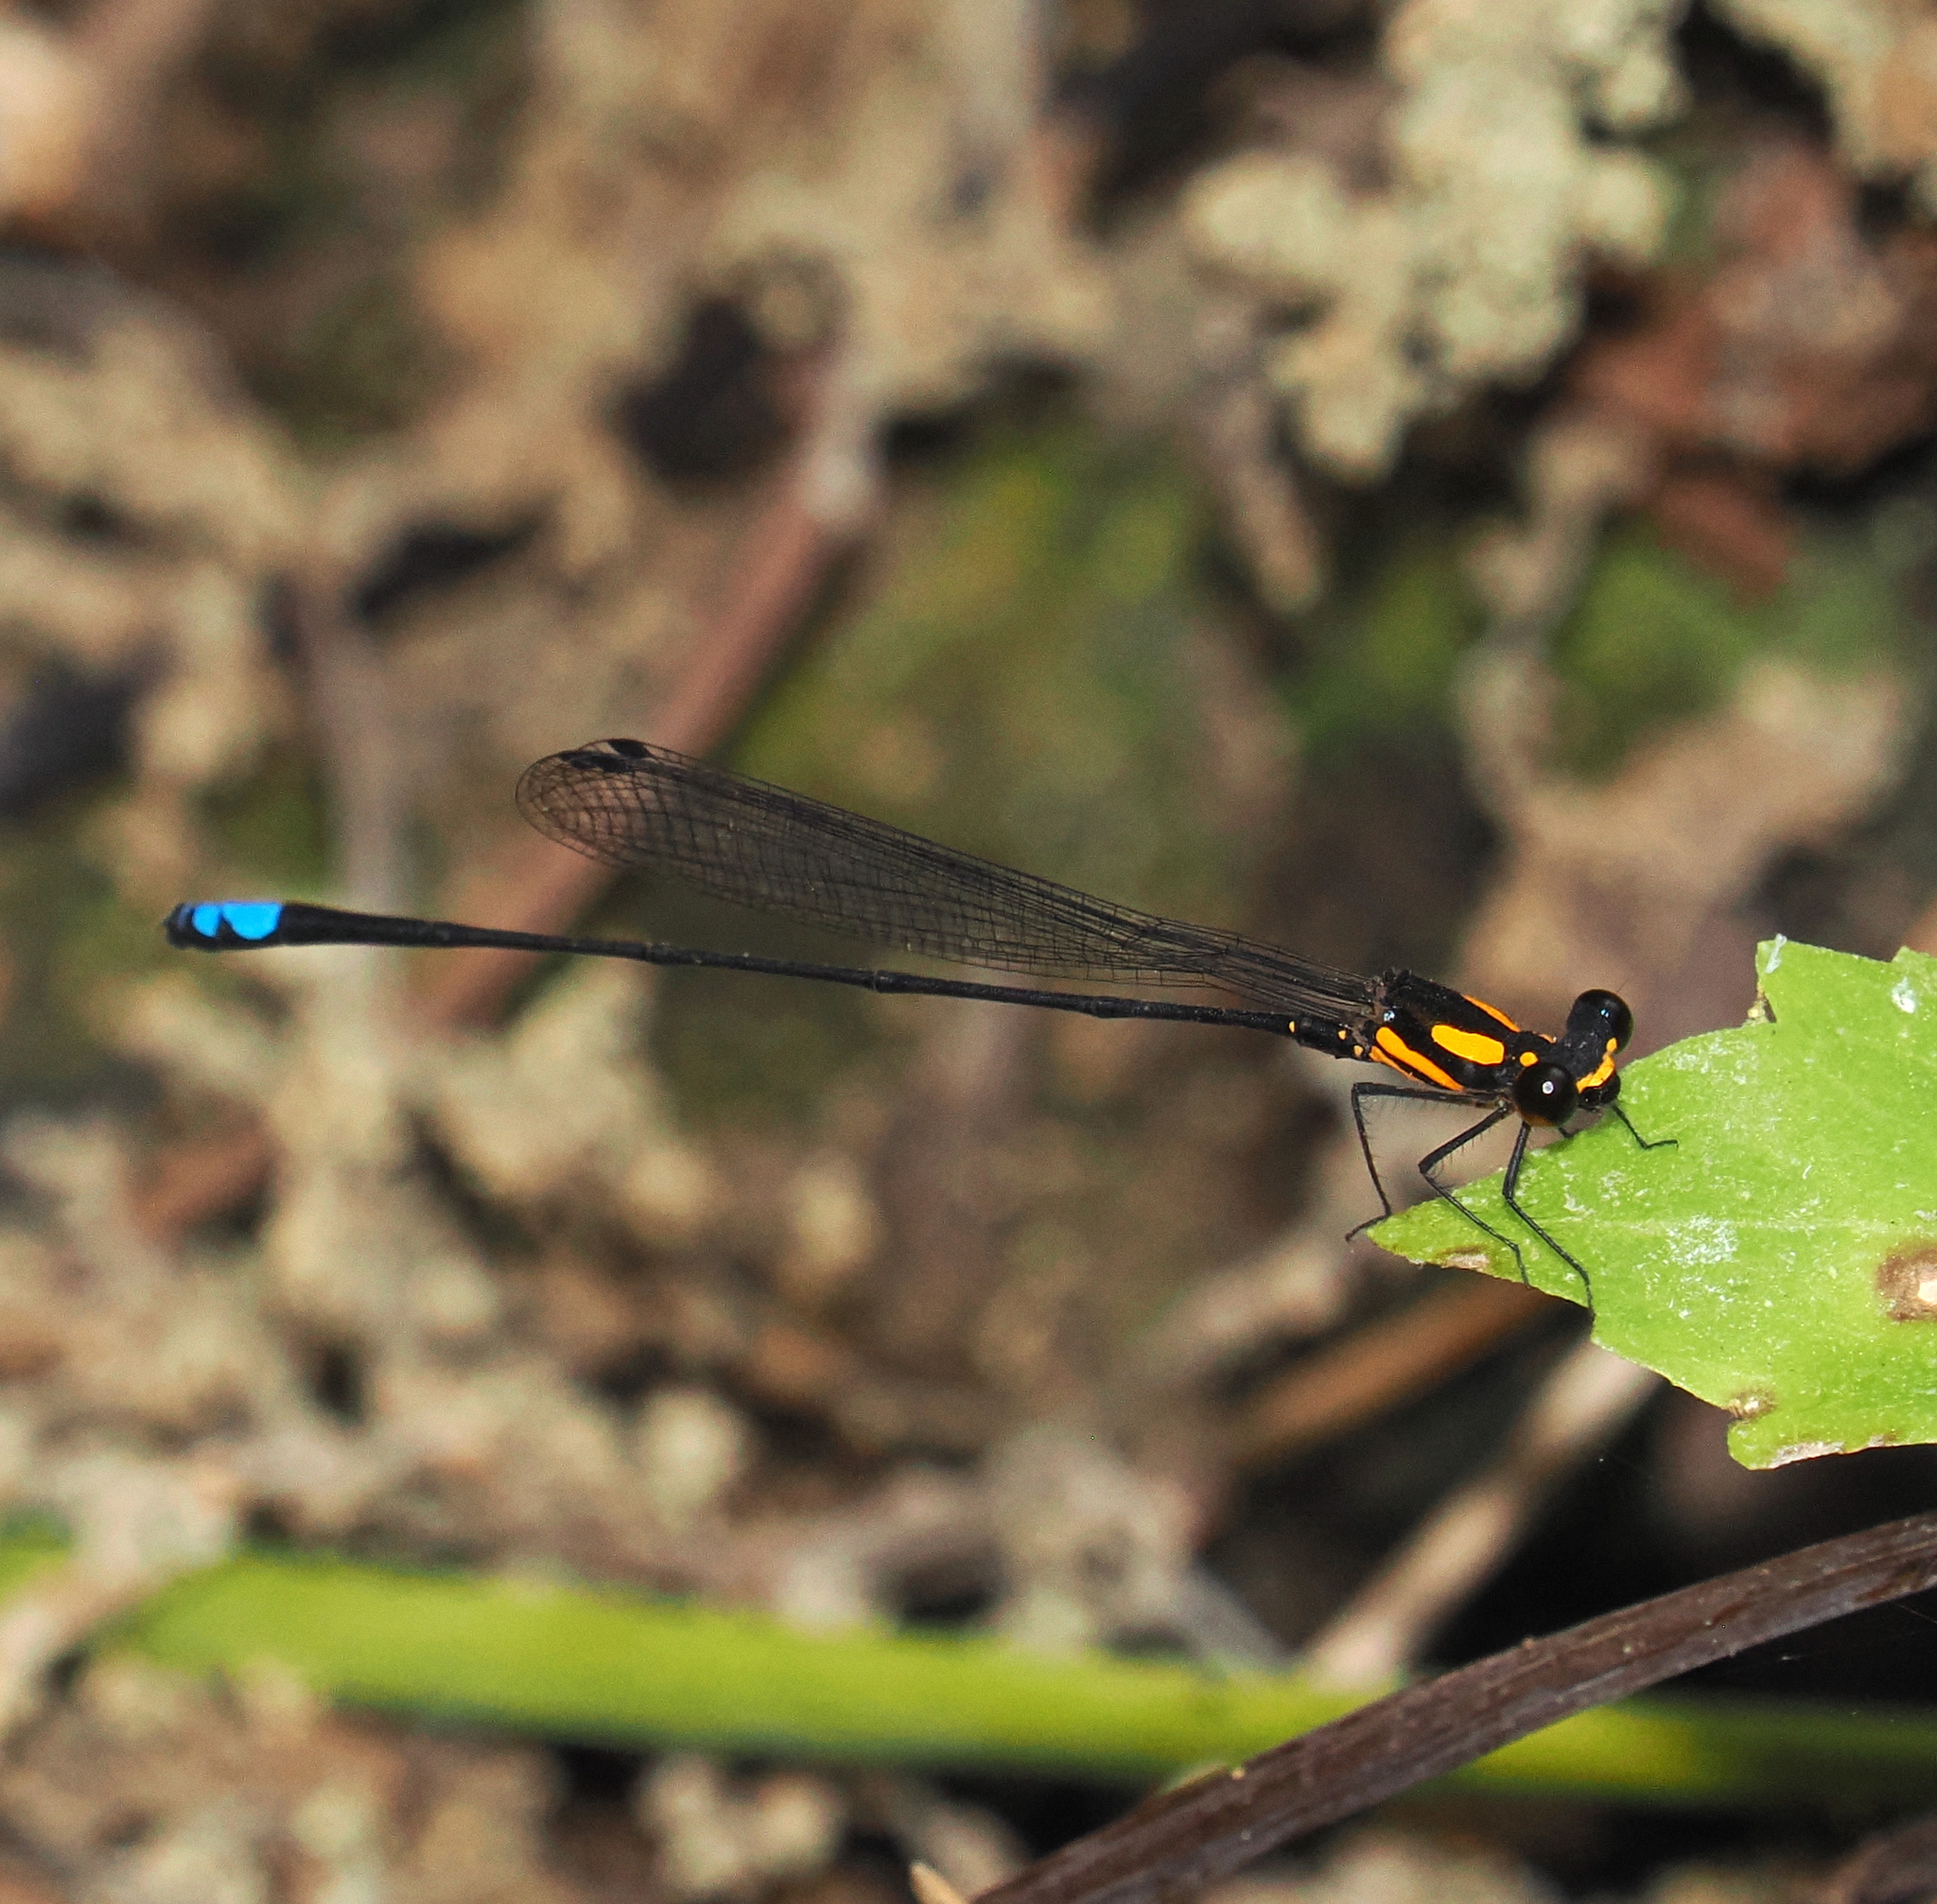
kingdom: Animalia
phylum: Arthropoda
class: Insecta
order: Odonata
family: Platycnemididae
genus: Nososticta
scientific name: Nososticta insignis
